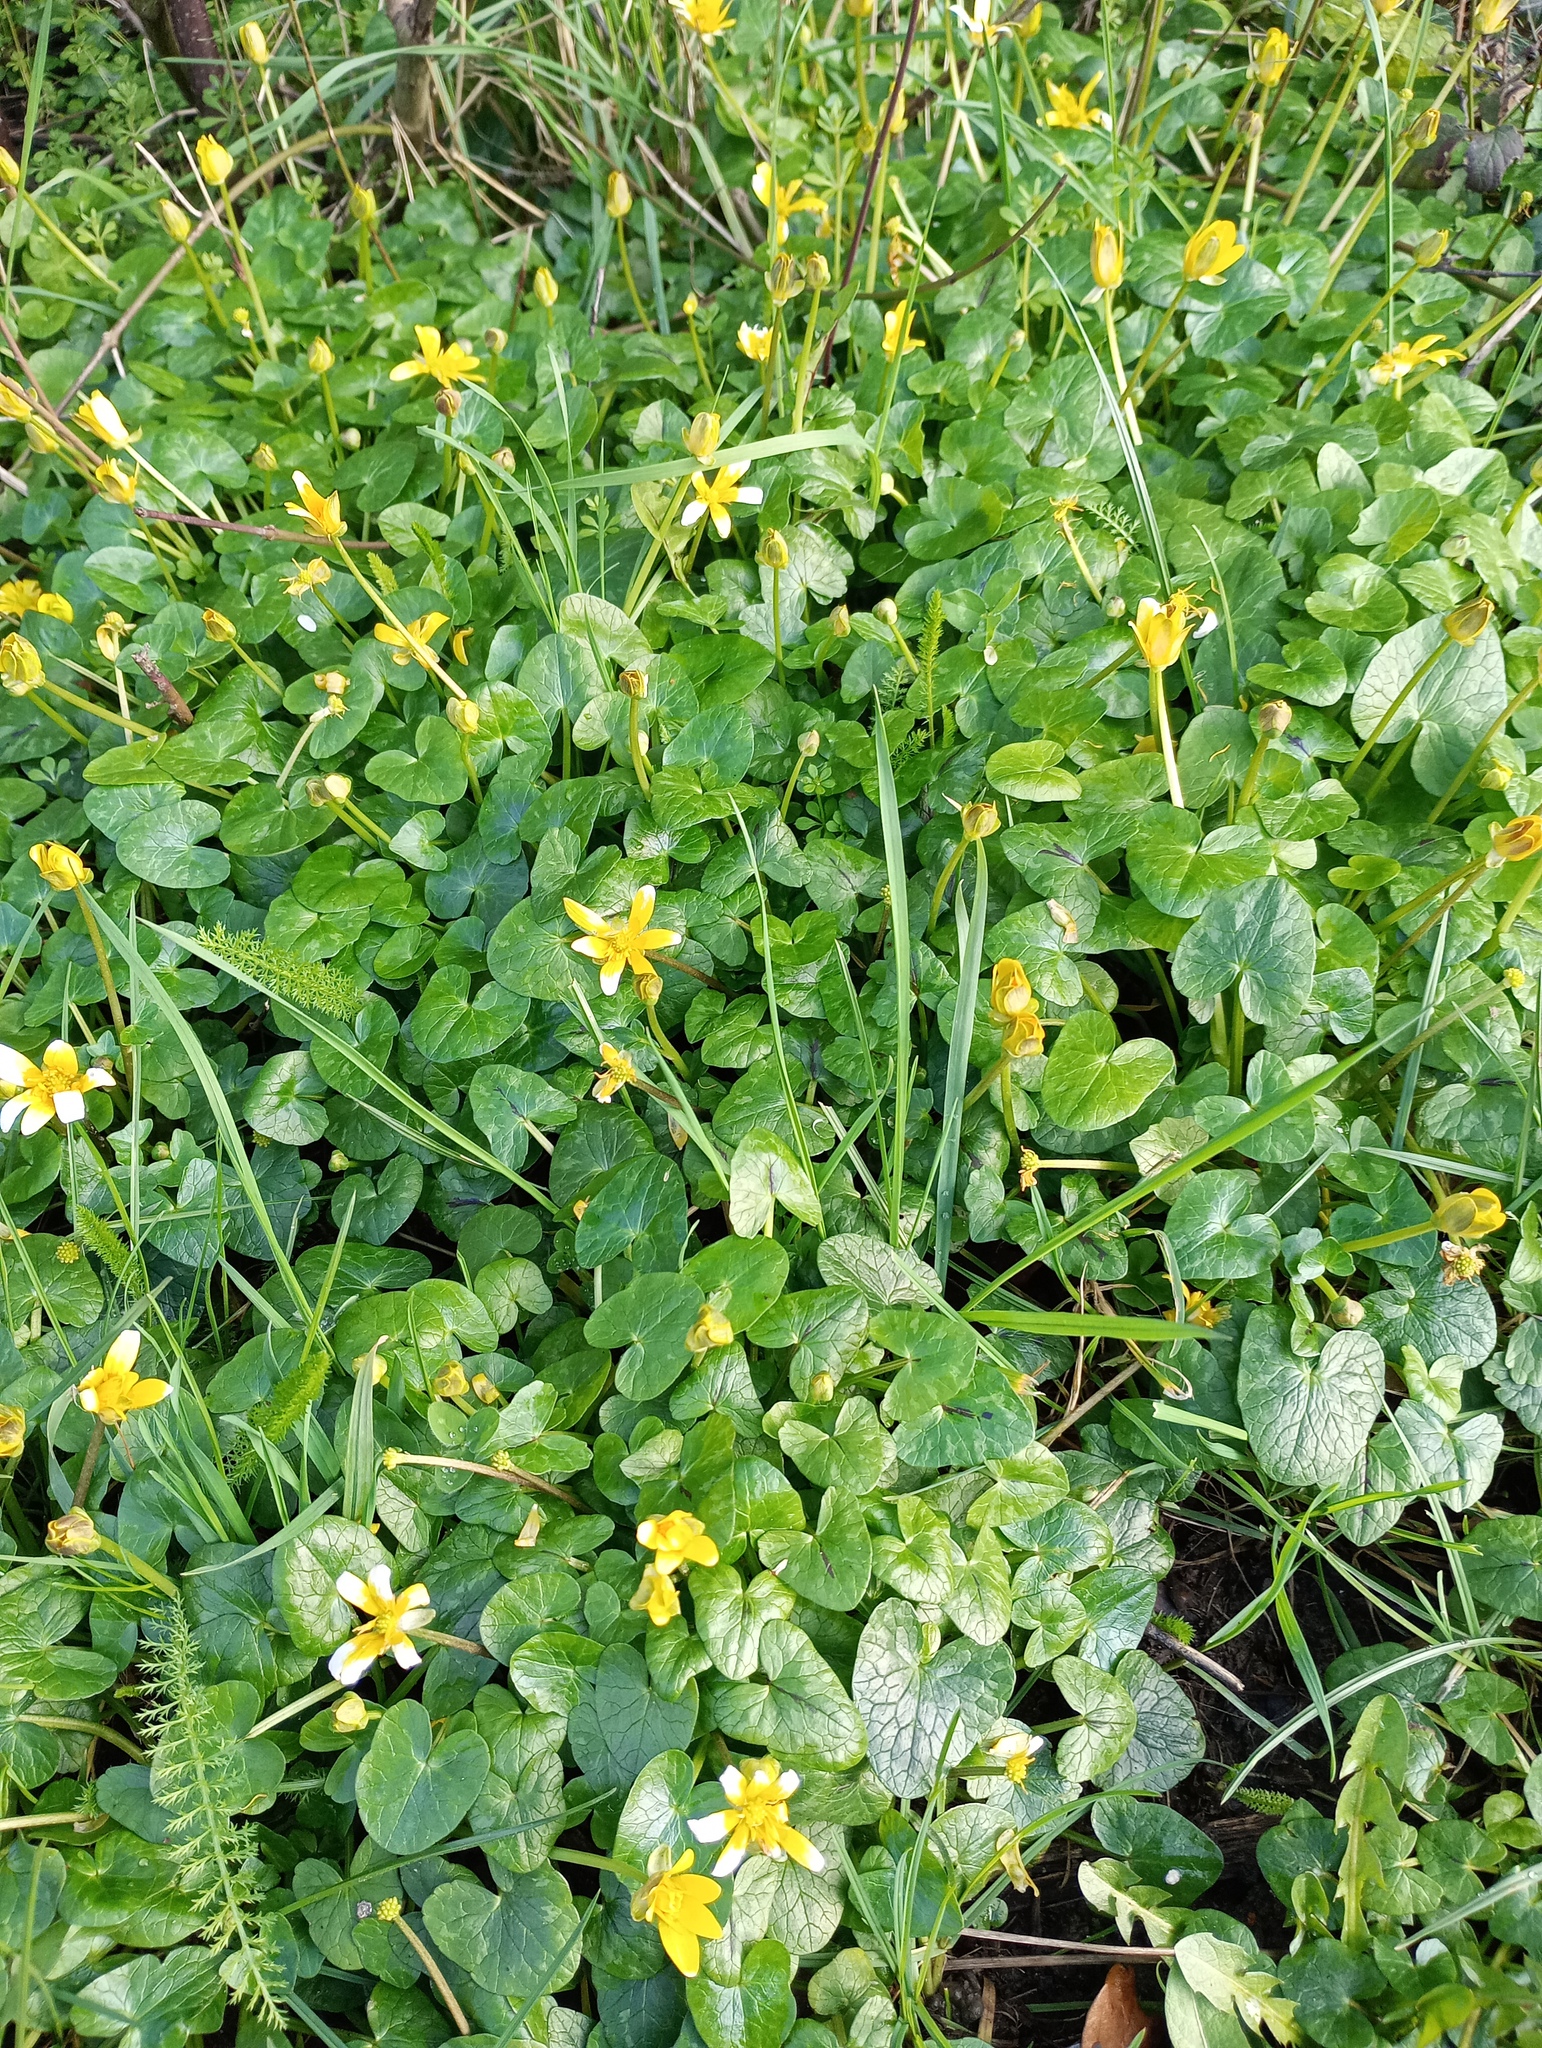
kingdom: Plantae
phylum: Tracheophyta
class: Magnoliopsida
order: Ranunculales
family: Ranunculaceae
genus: Ficaria
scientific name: Ficaria verna
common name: Lesser celandine
